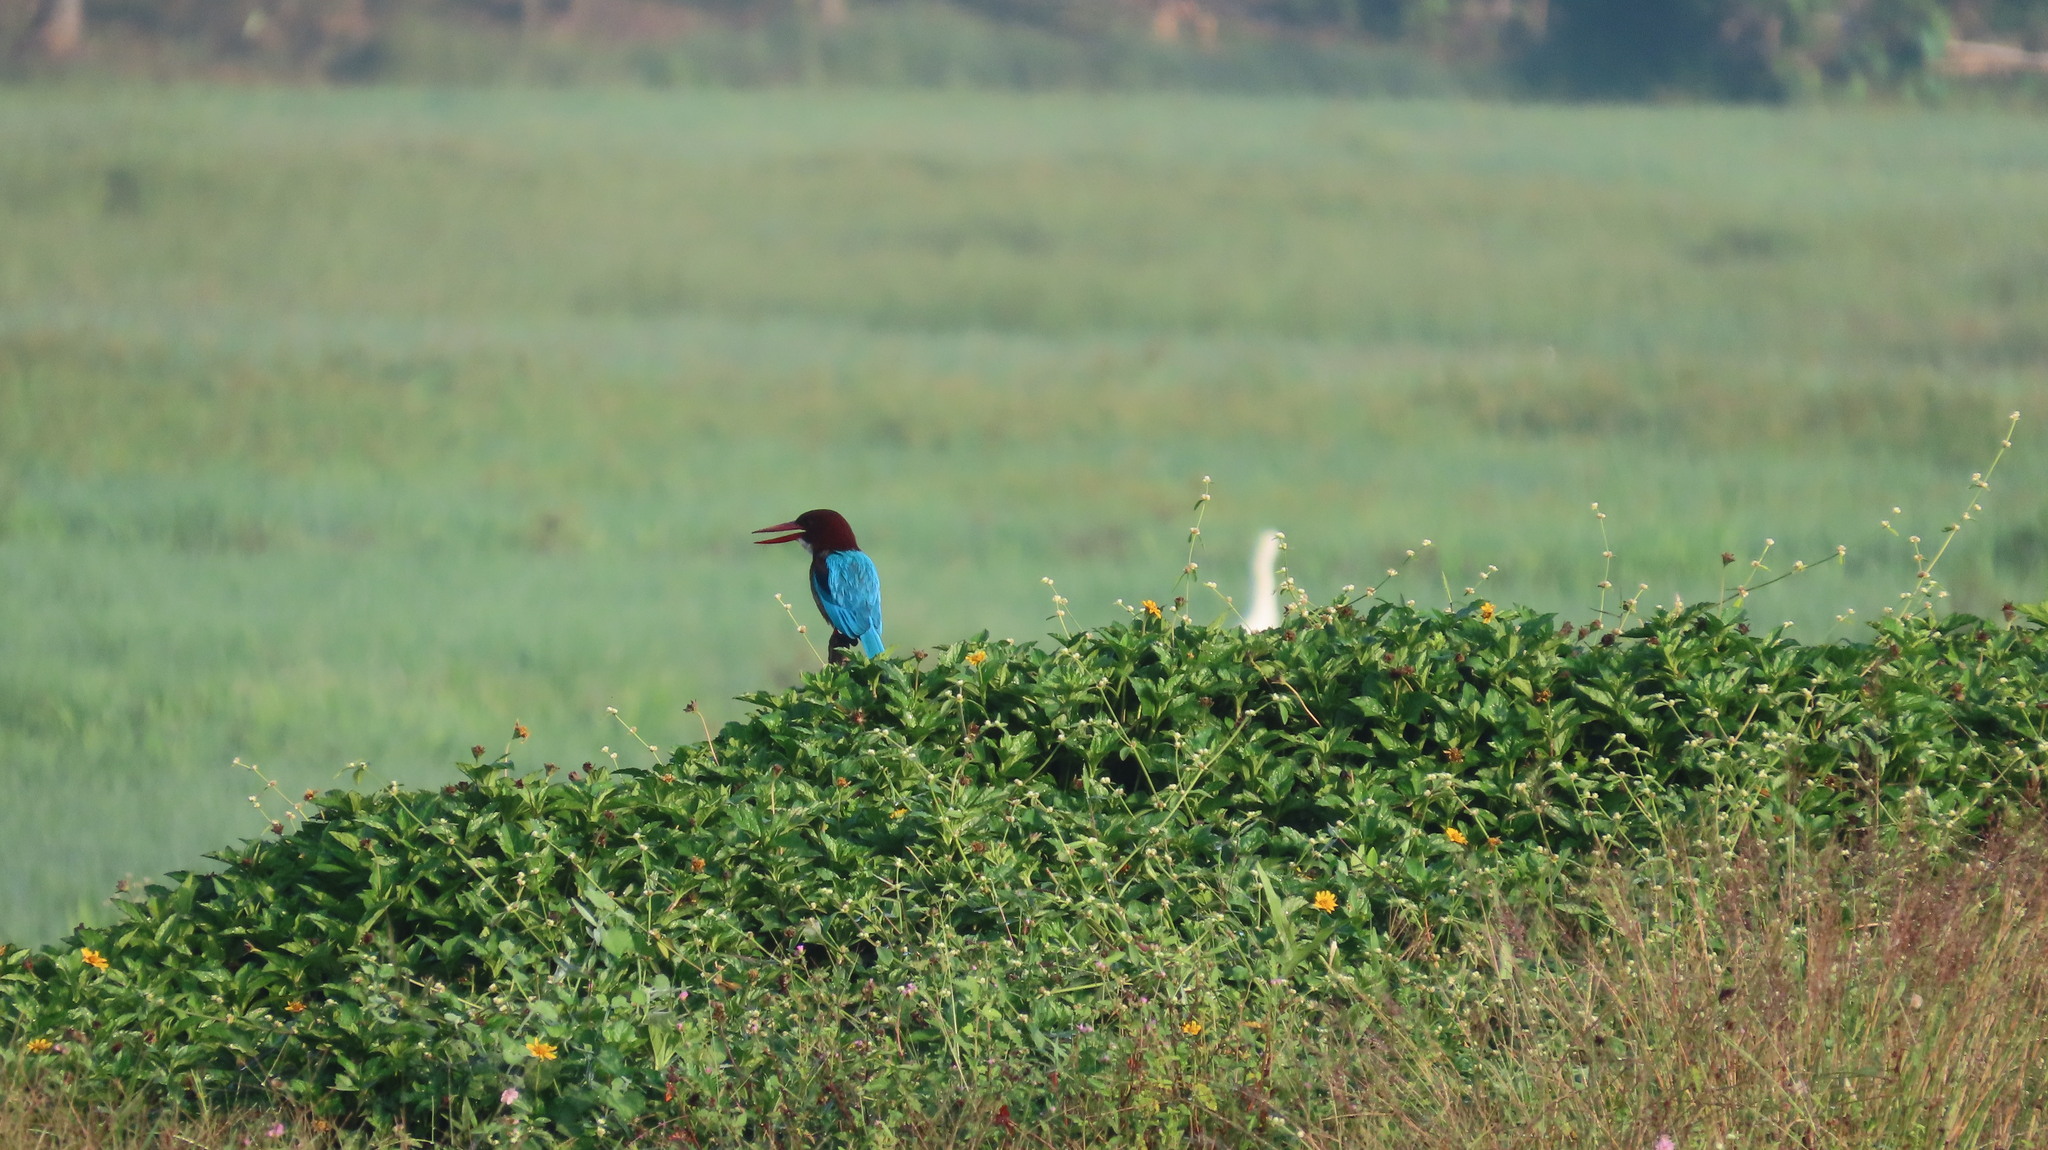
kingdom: Animalia
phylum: Chordata
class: Aves
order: Coraciiformes
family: Alcedinidae
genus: Halcyon
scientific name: Halcyon smyrnensis
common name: White-throated kingfisher
